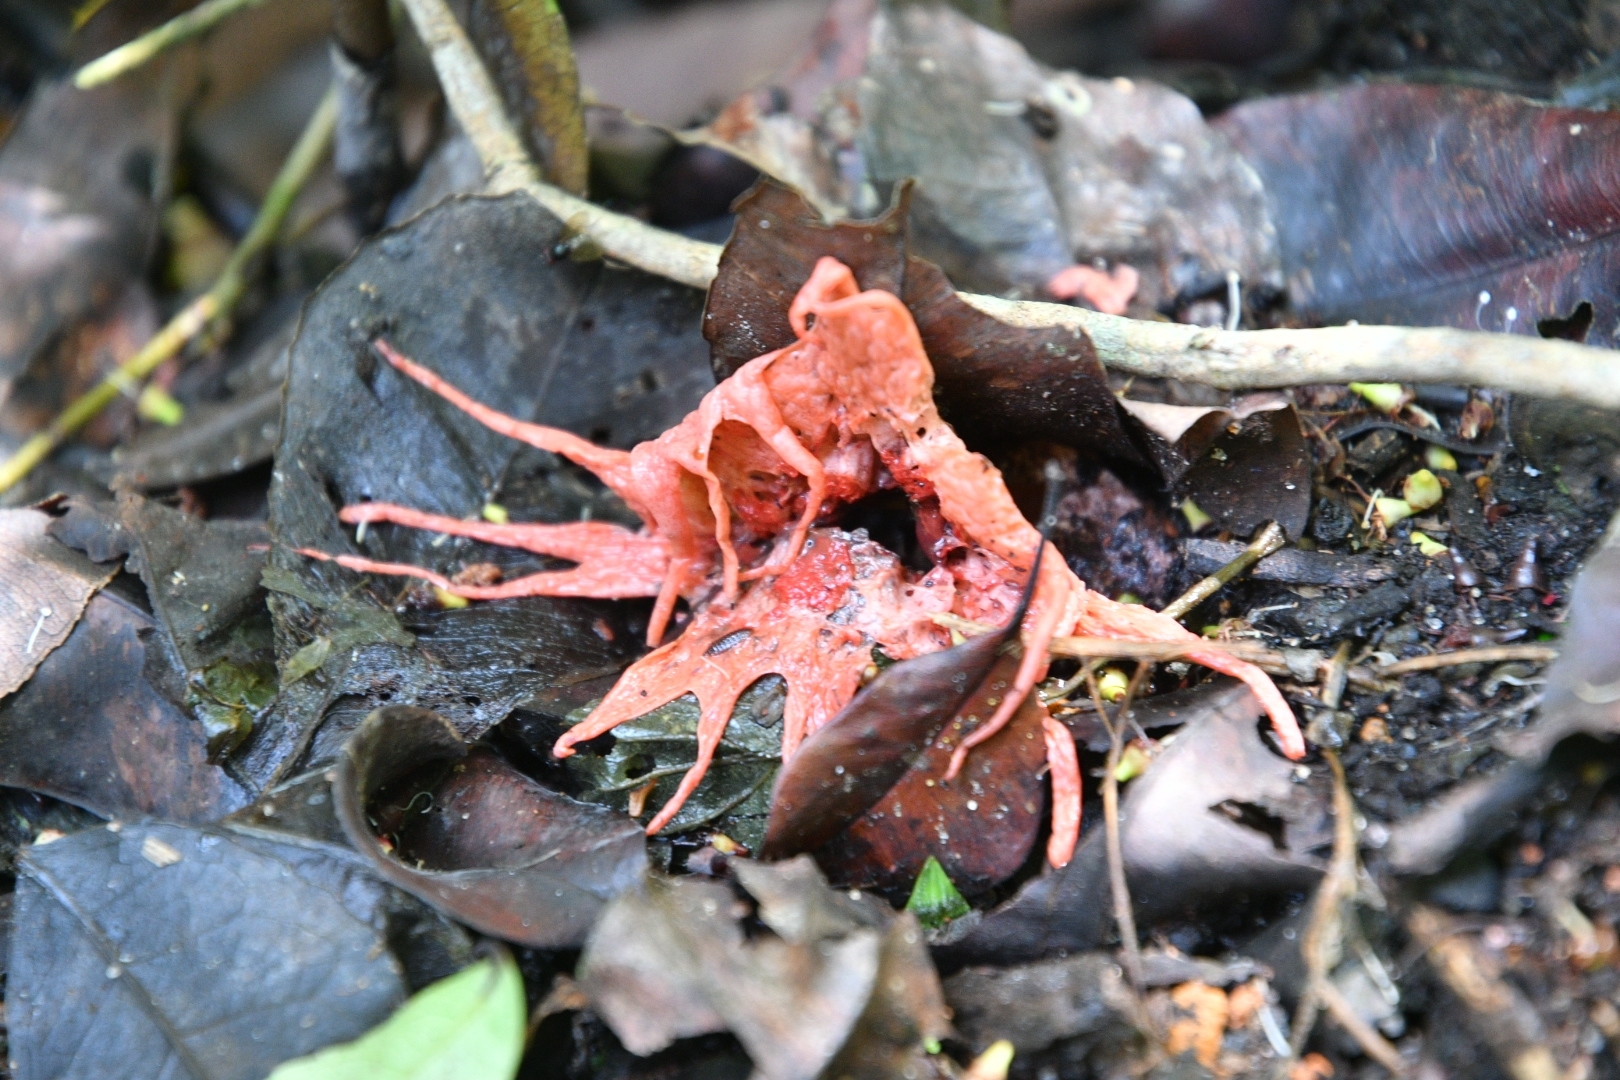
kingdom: Fungi
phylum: Basidiomycota
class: Agaricomycetes
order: Phallales
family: Phallaceae
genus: Aseroe
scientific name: Aseroe rubra
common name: Starfish fungus
